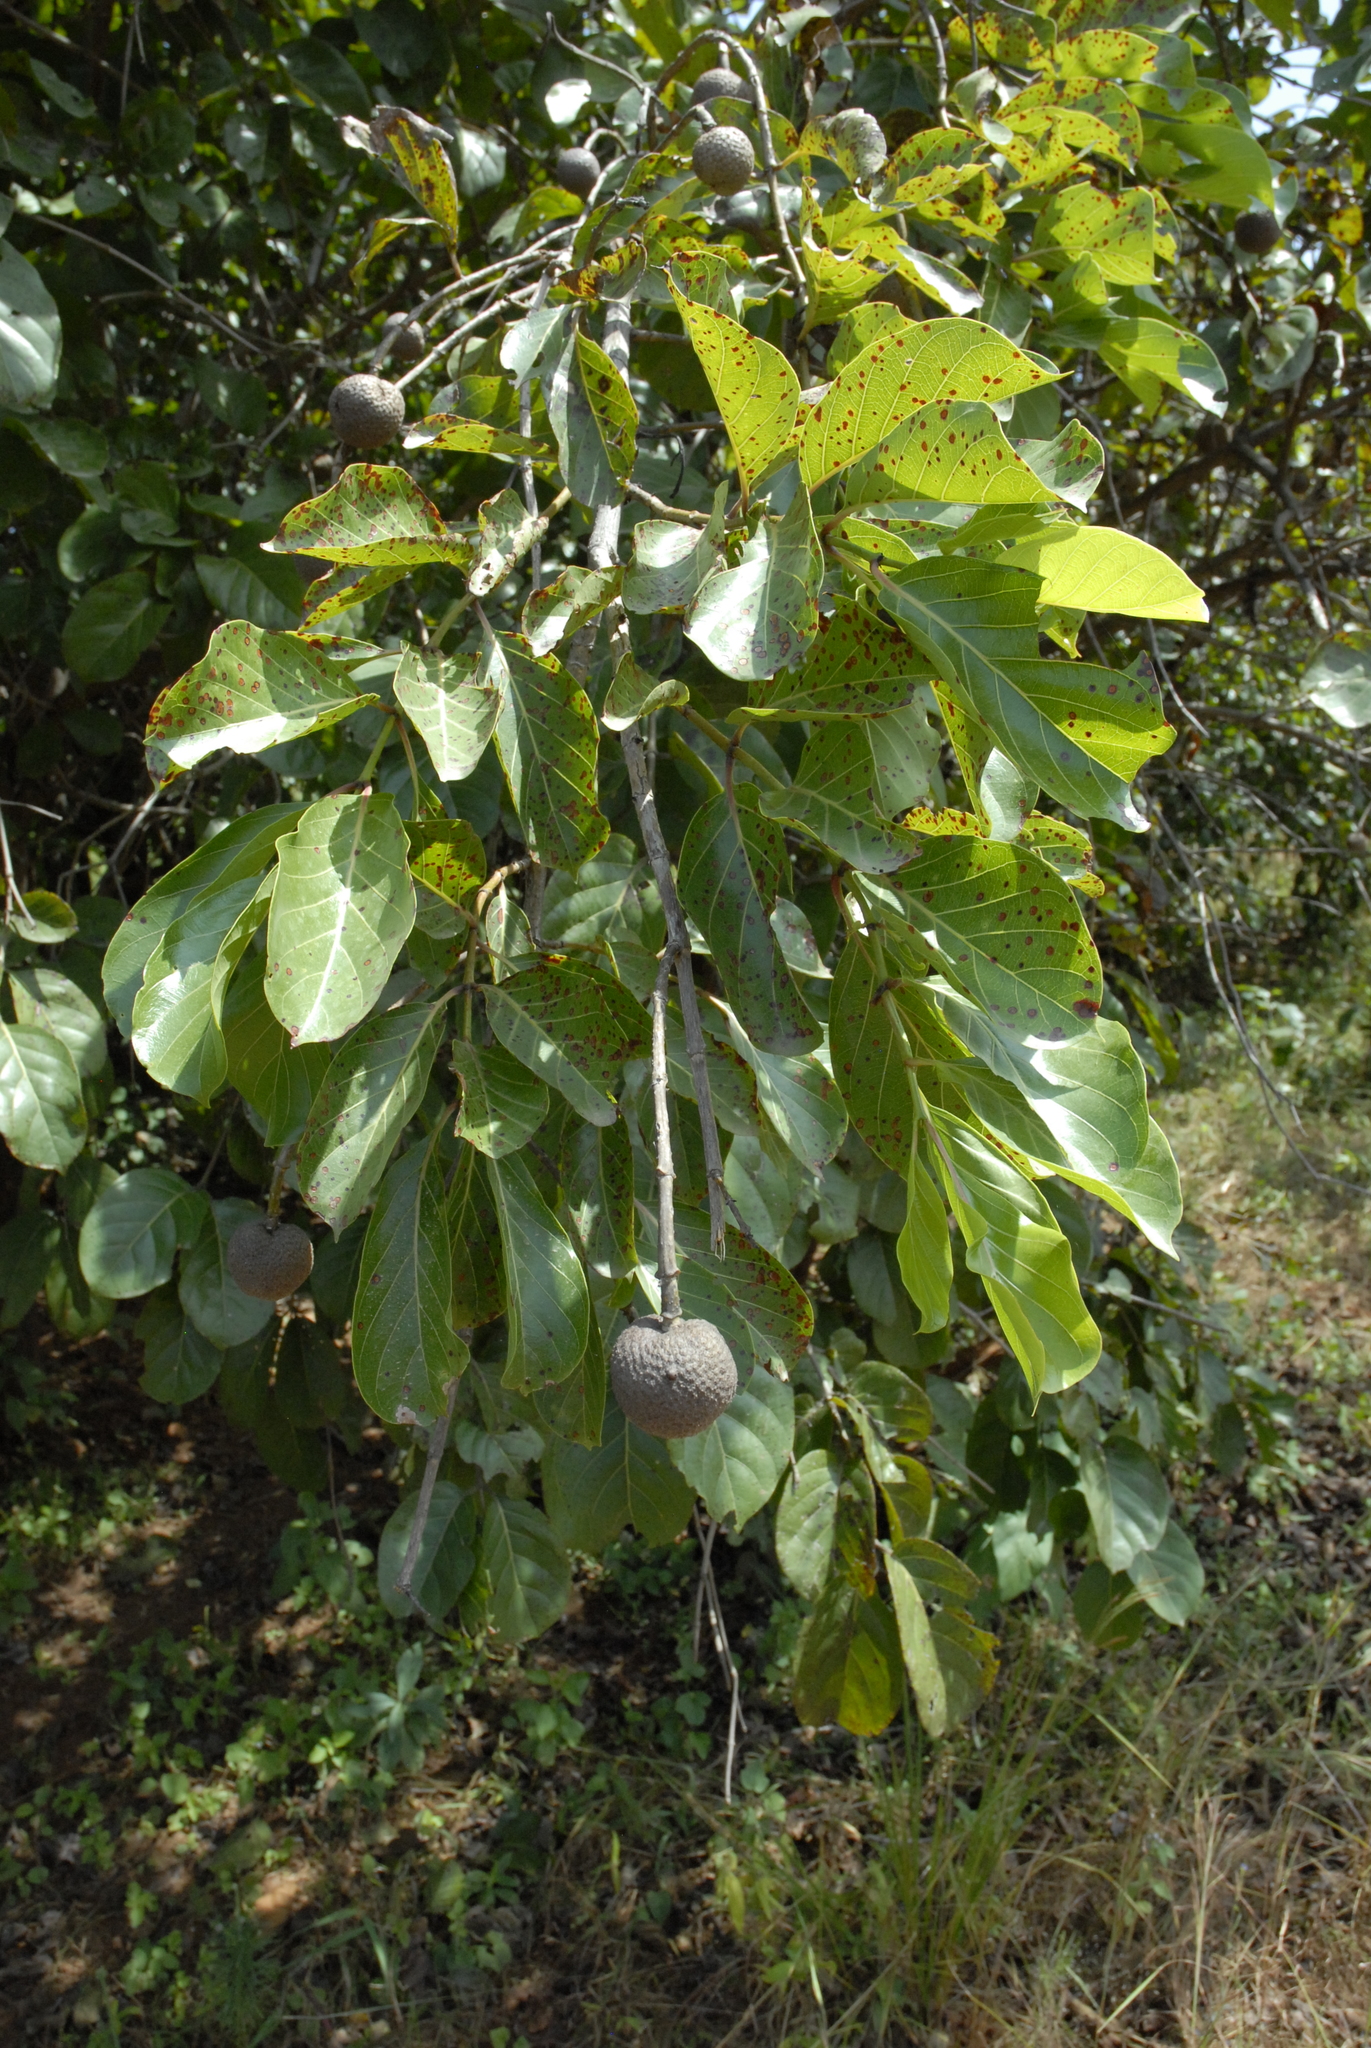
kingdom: Plantae
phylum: Tracheophyta
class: Magnoliopsida
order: Gentianales
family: Rubiaceae
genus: Nauclea
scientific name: Nauclea latifolia
